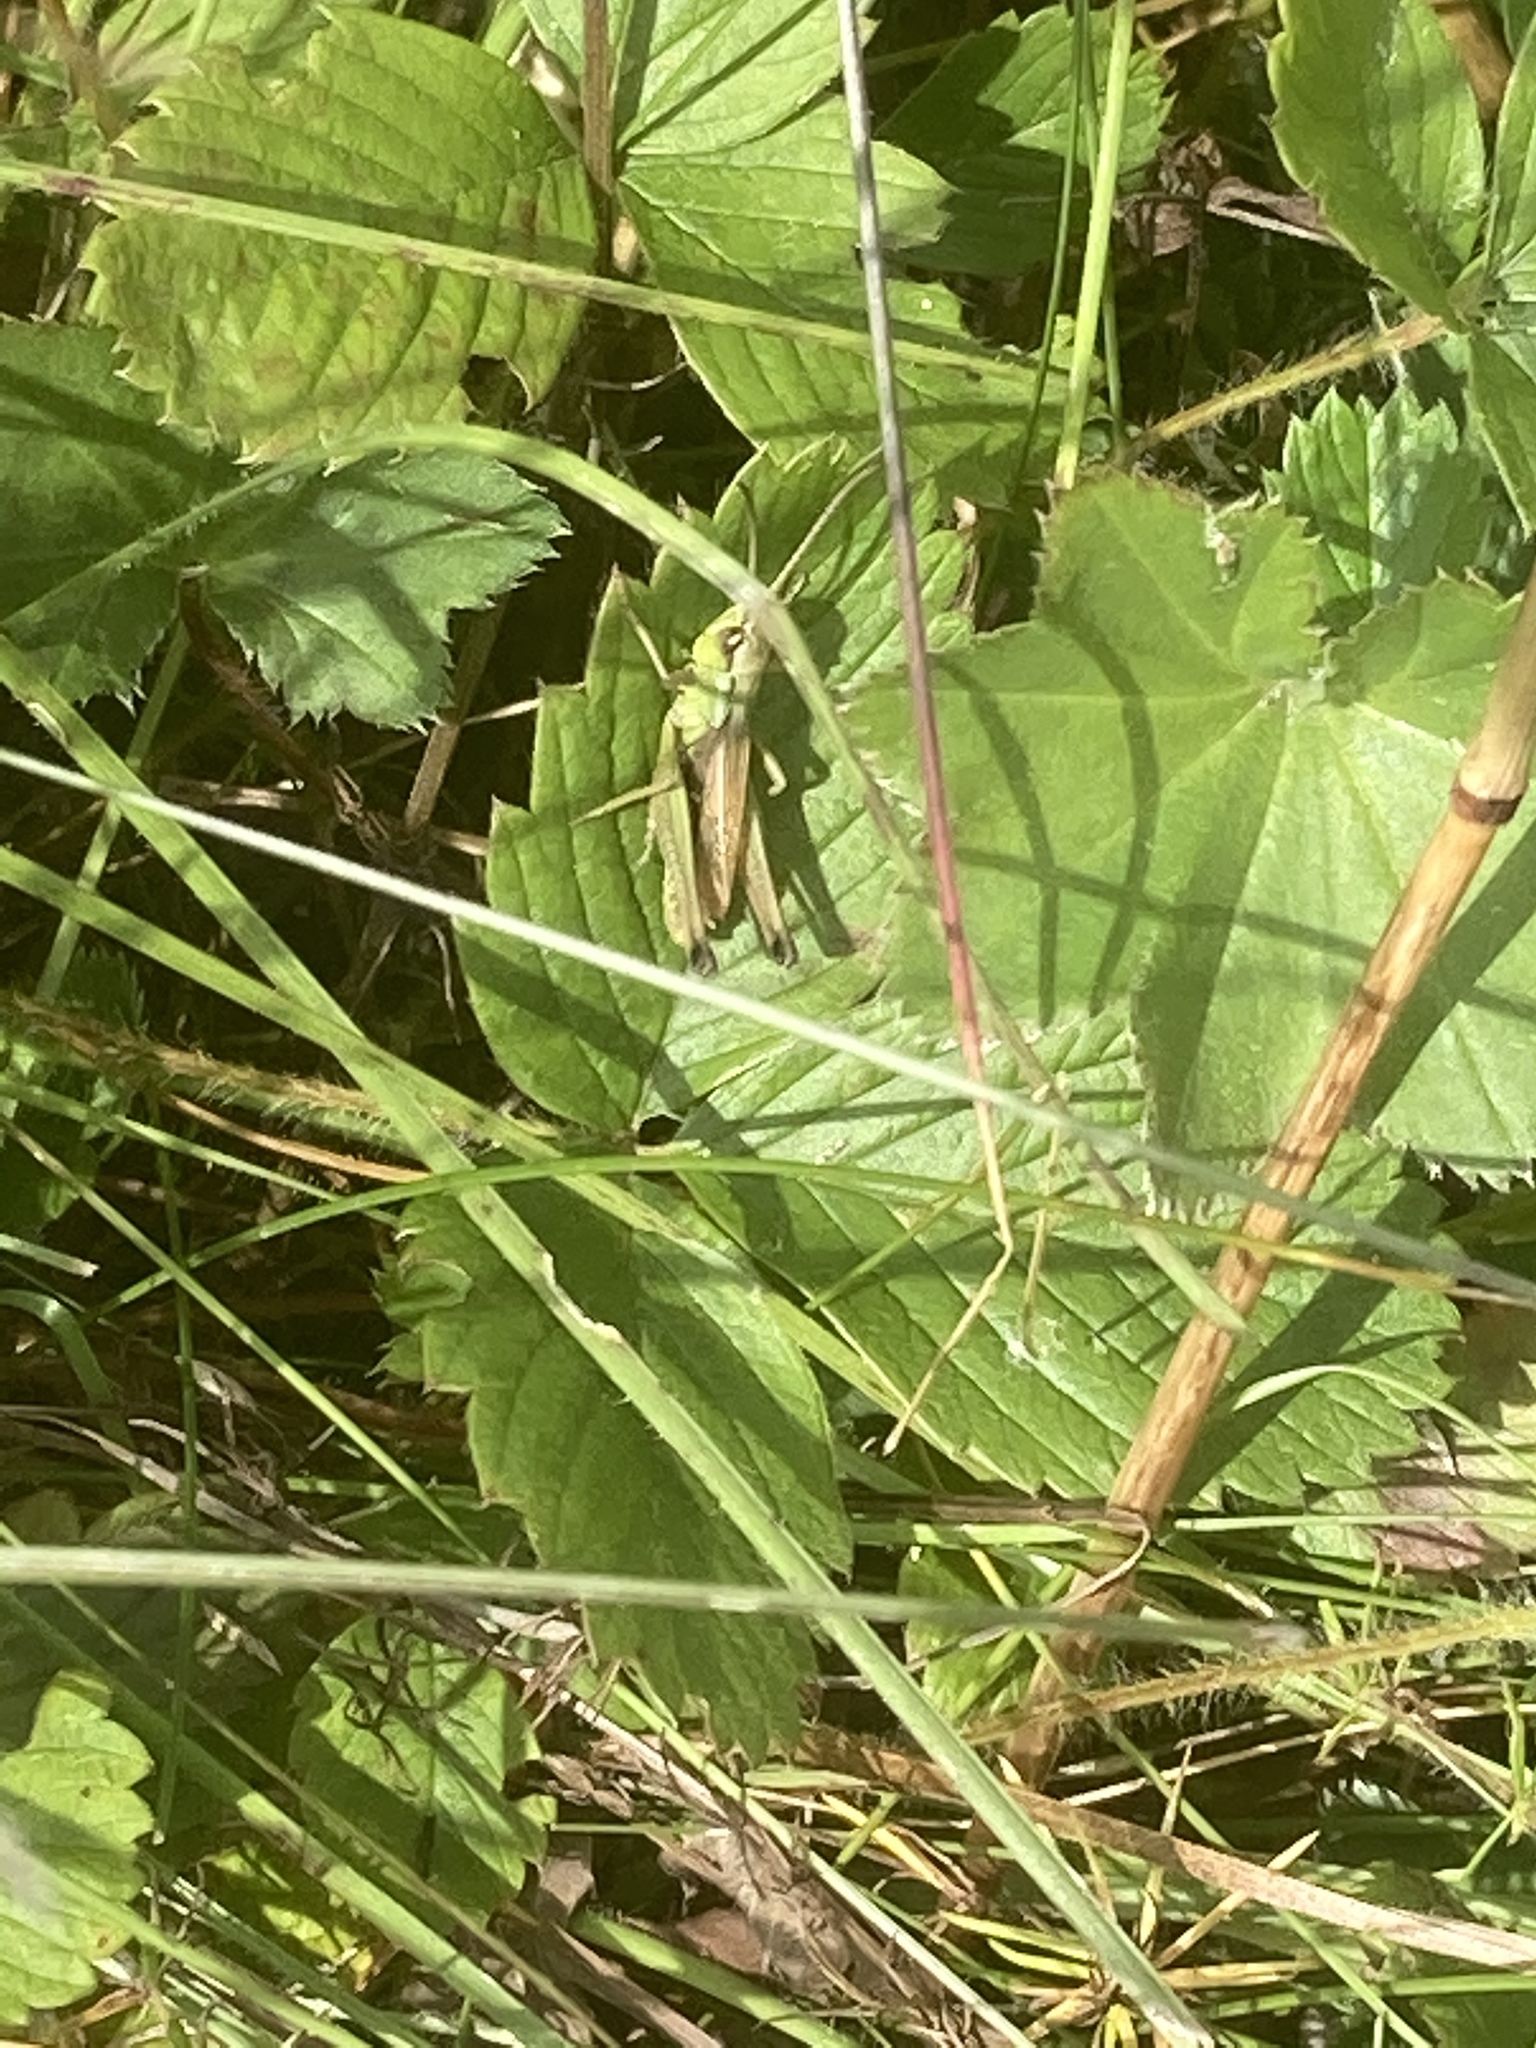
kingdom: Animalia
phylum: Arthropoda
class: Insecta
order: Orthoptera
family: Acrididae
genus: Pseudochorthippus
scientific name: Pseudochorthippus parallelus
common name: Meadow grasshopper
